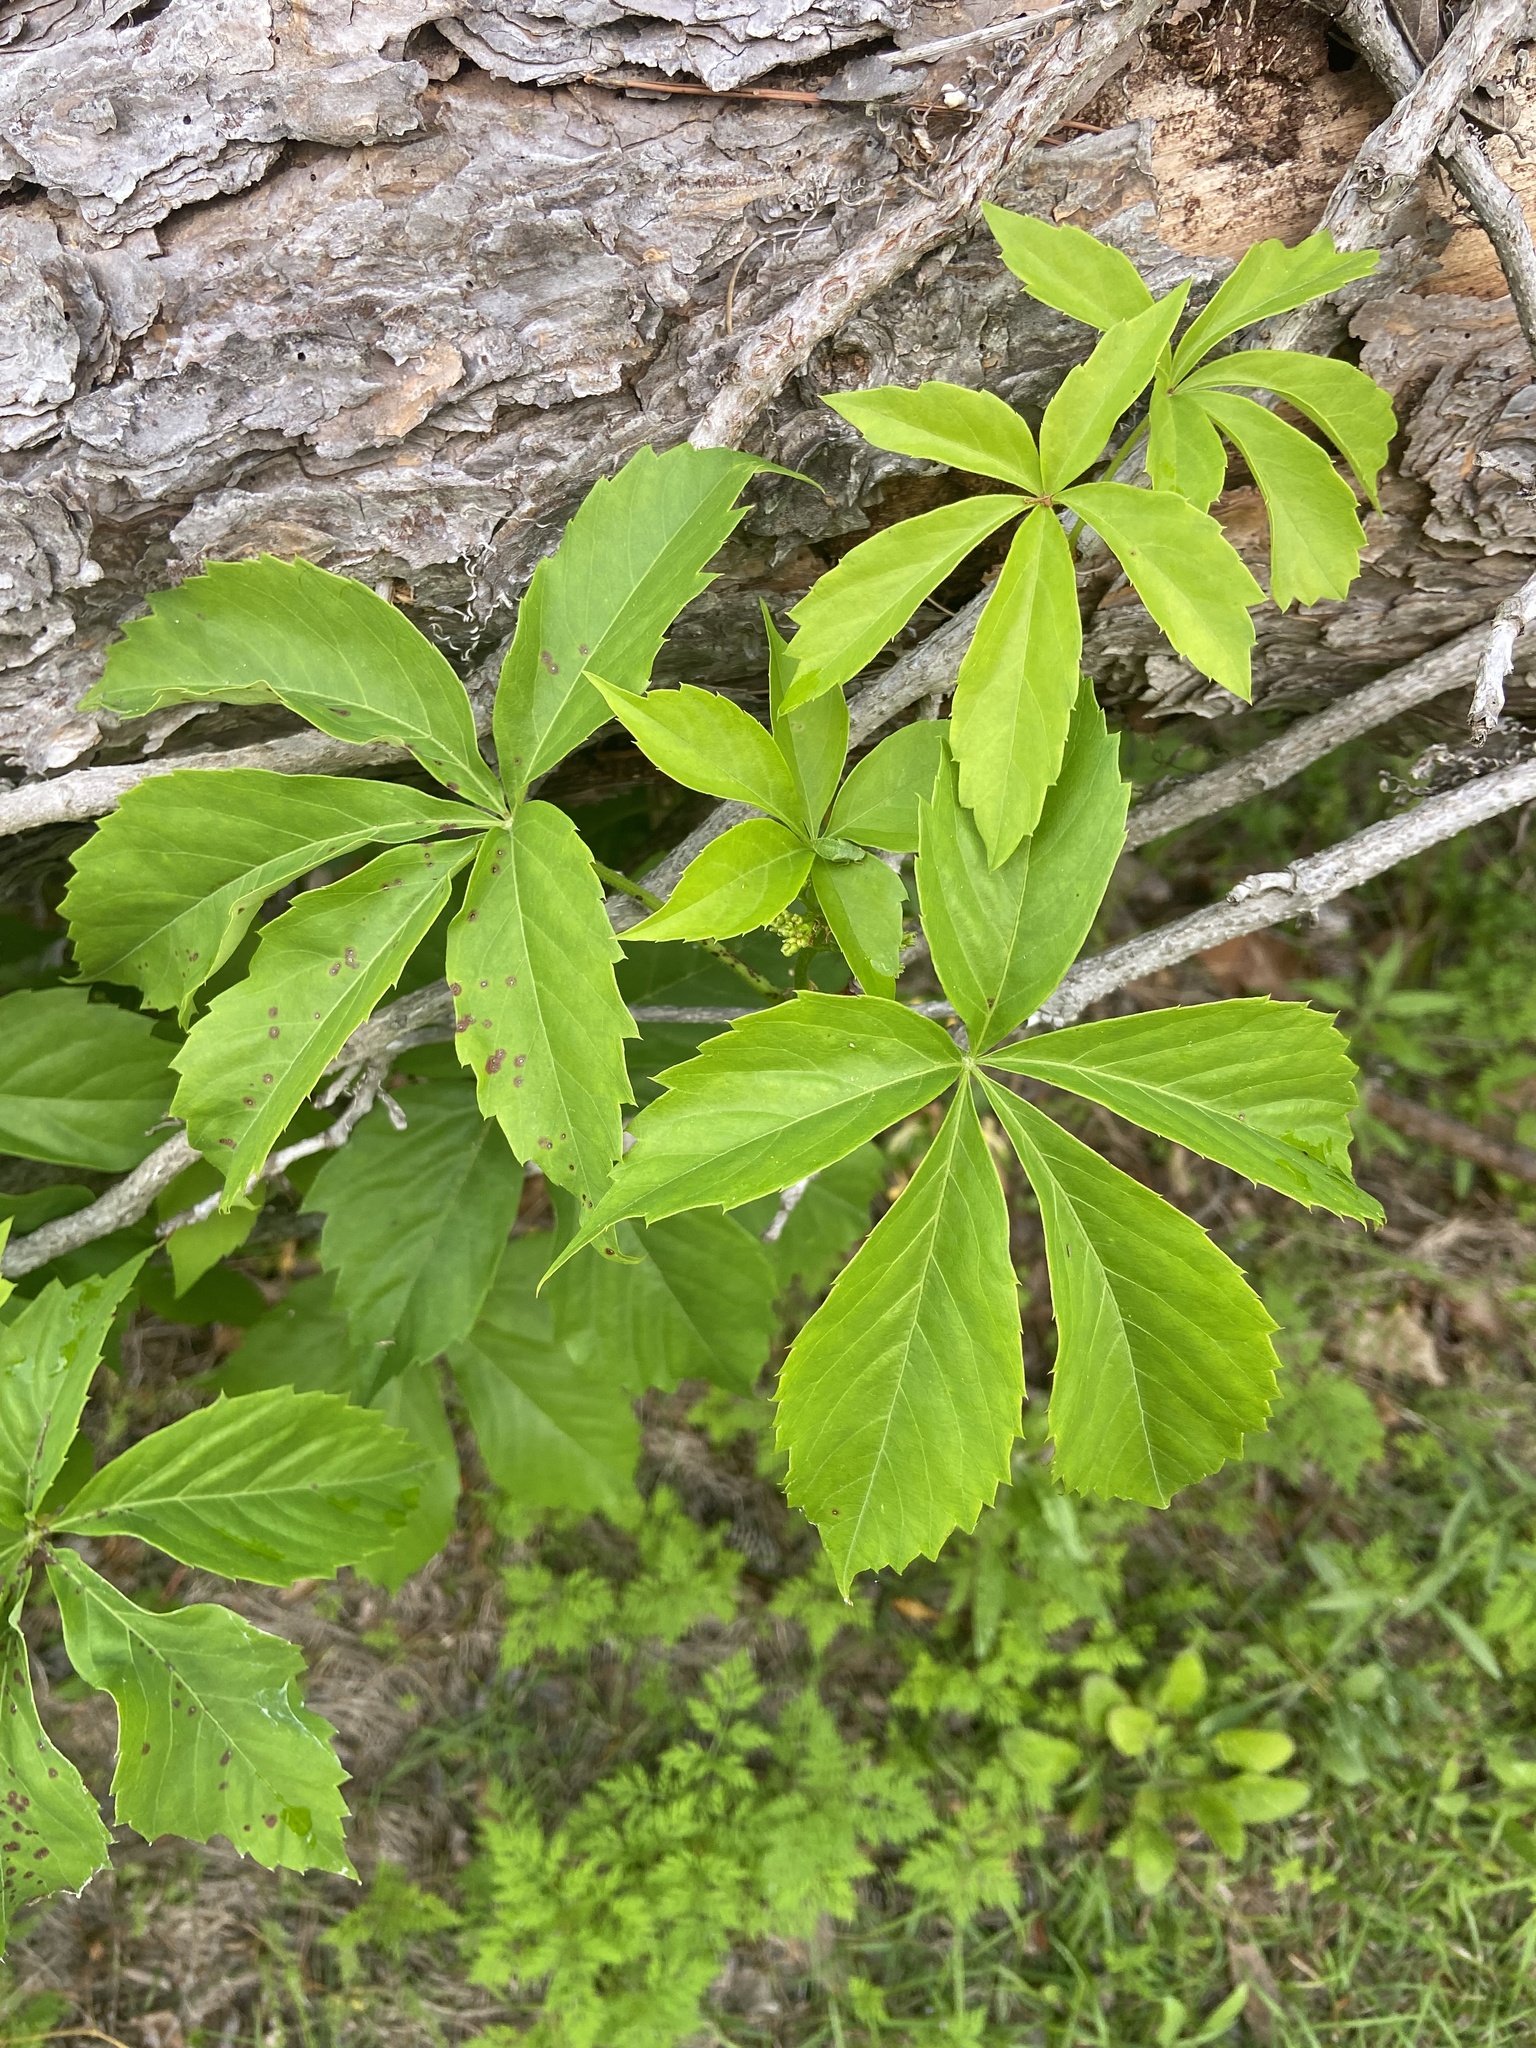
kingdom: Plantae
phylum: Tracheophyta
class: Magnoliopsida
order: Vitales
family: Vitaceae
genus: Parthenocissus
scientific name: Parthenocissus quinquefolia
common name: Virginia-creeper
